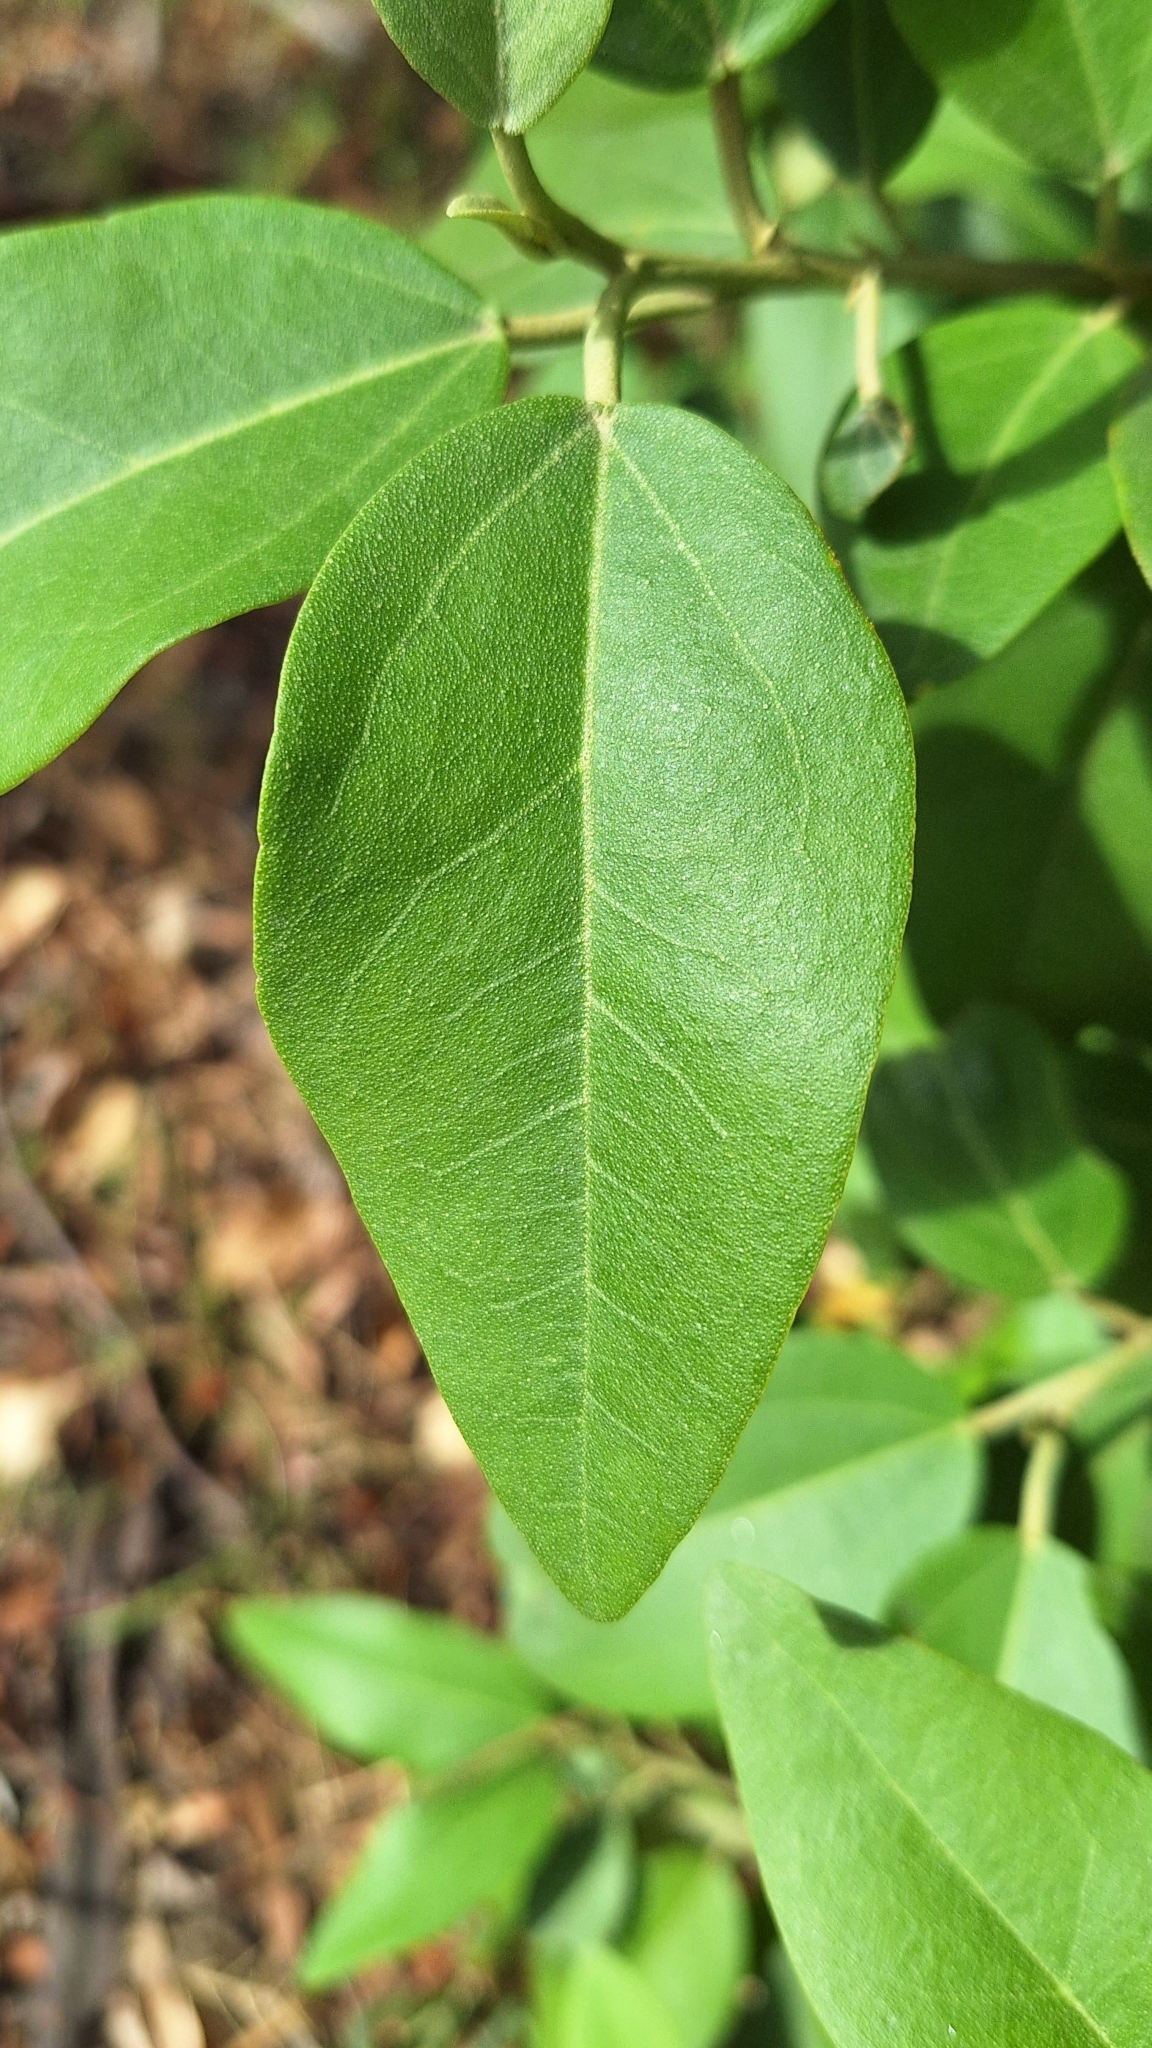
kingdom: Plantae
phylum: Tracheophyta
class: Magnoliopsida
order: Malvales
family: Malvaceae
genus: Lagunaria
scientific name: Lagunaria patersonia
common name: Cow itch tree
